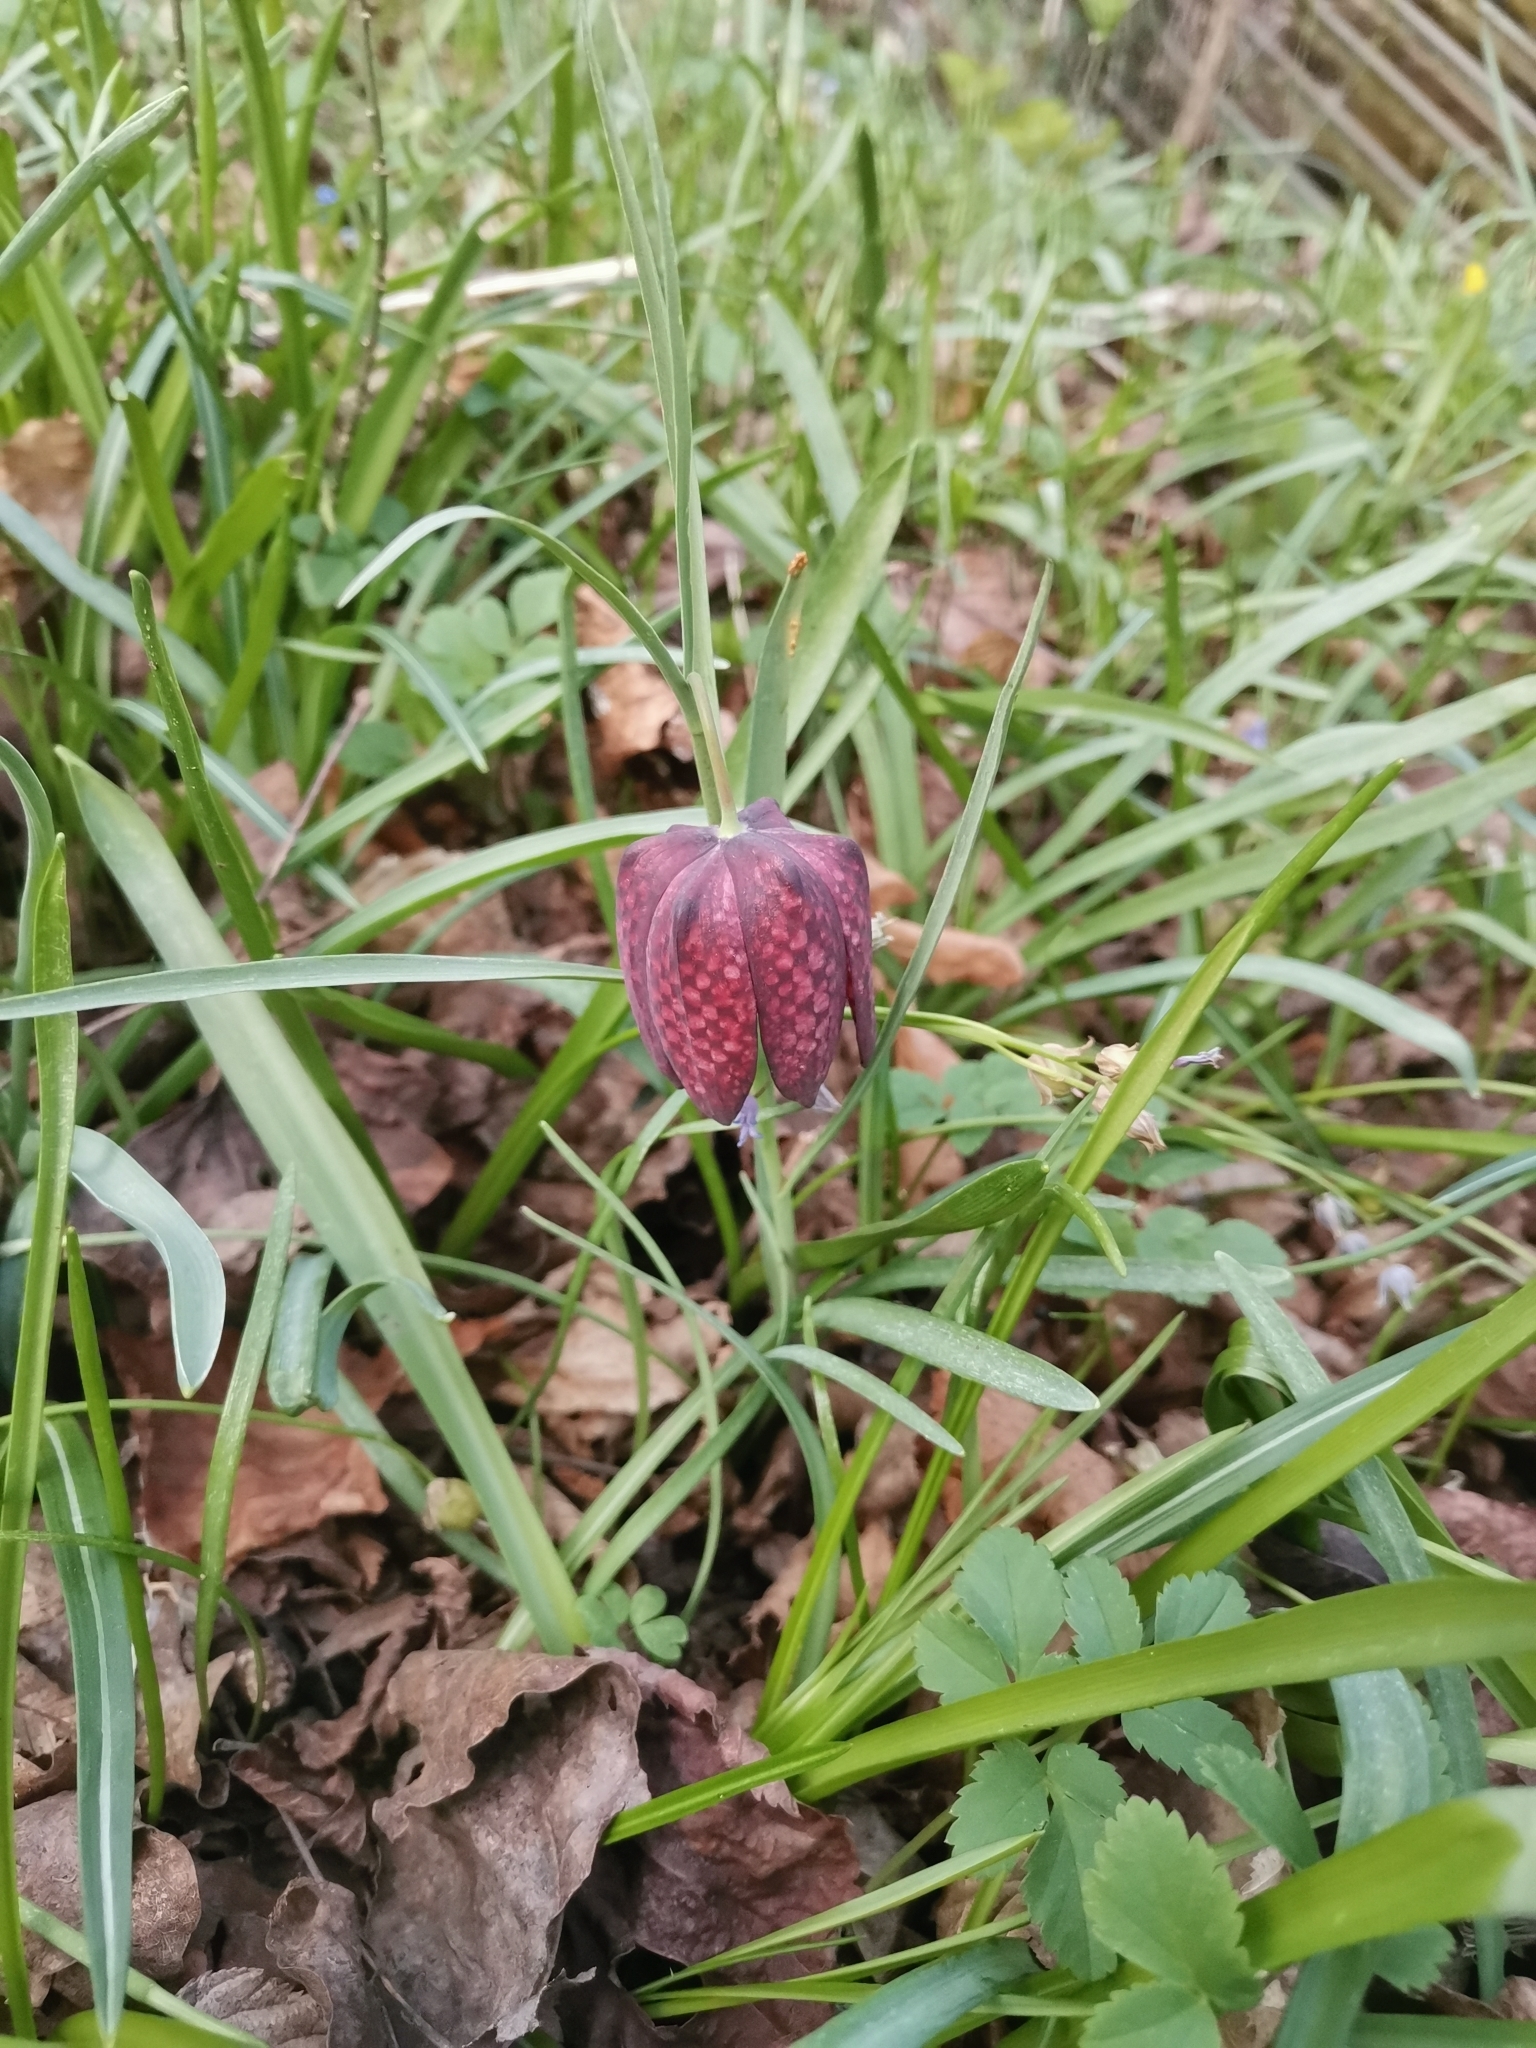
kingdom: Plantae
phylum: Tracheophyta
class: Liliopsida
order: Liliales
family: Liliaceae
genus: Fritillaria
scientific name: Fritillaria meleagris
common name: Fritillary
